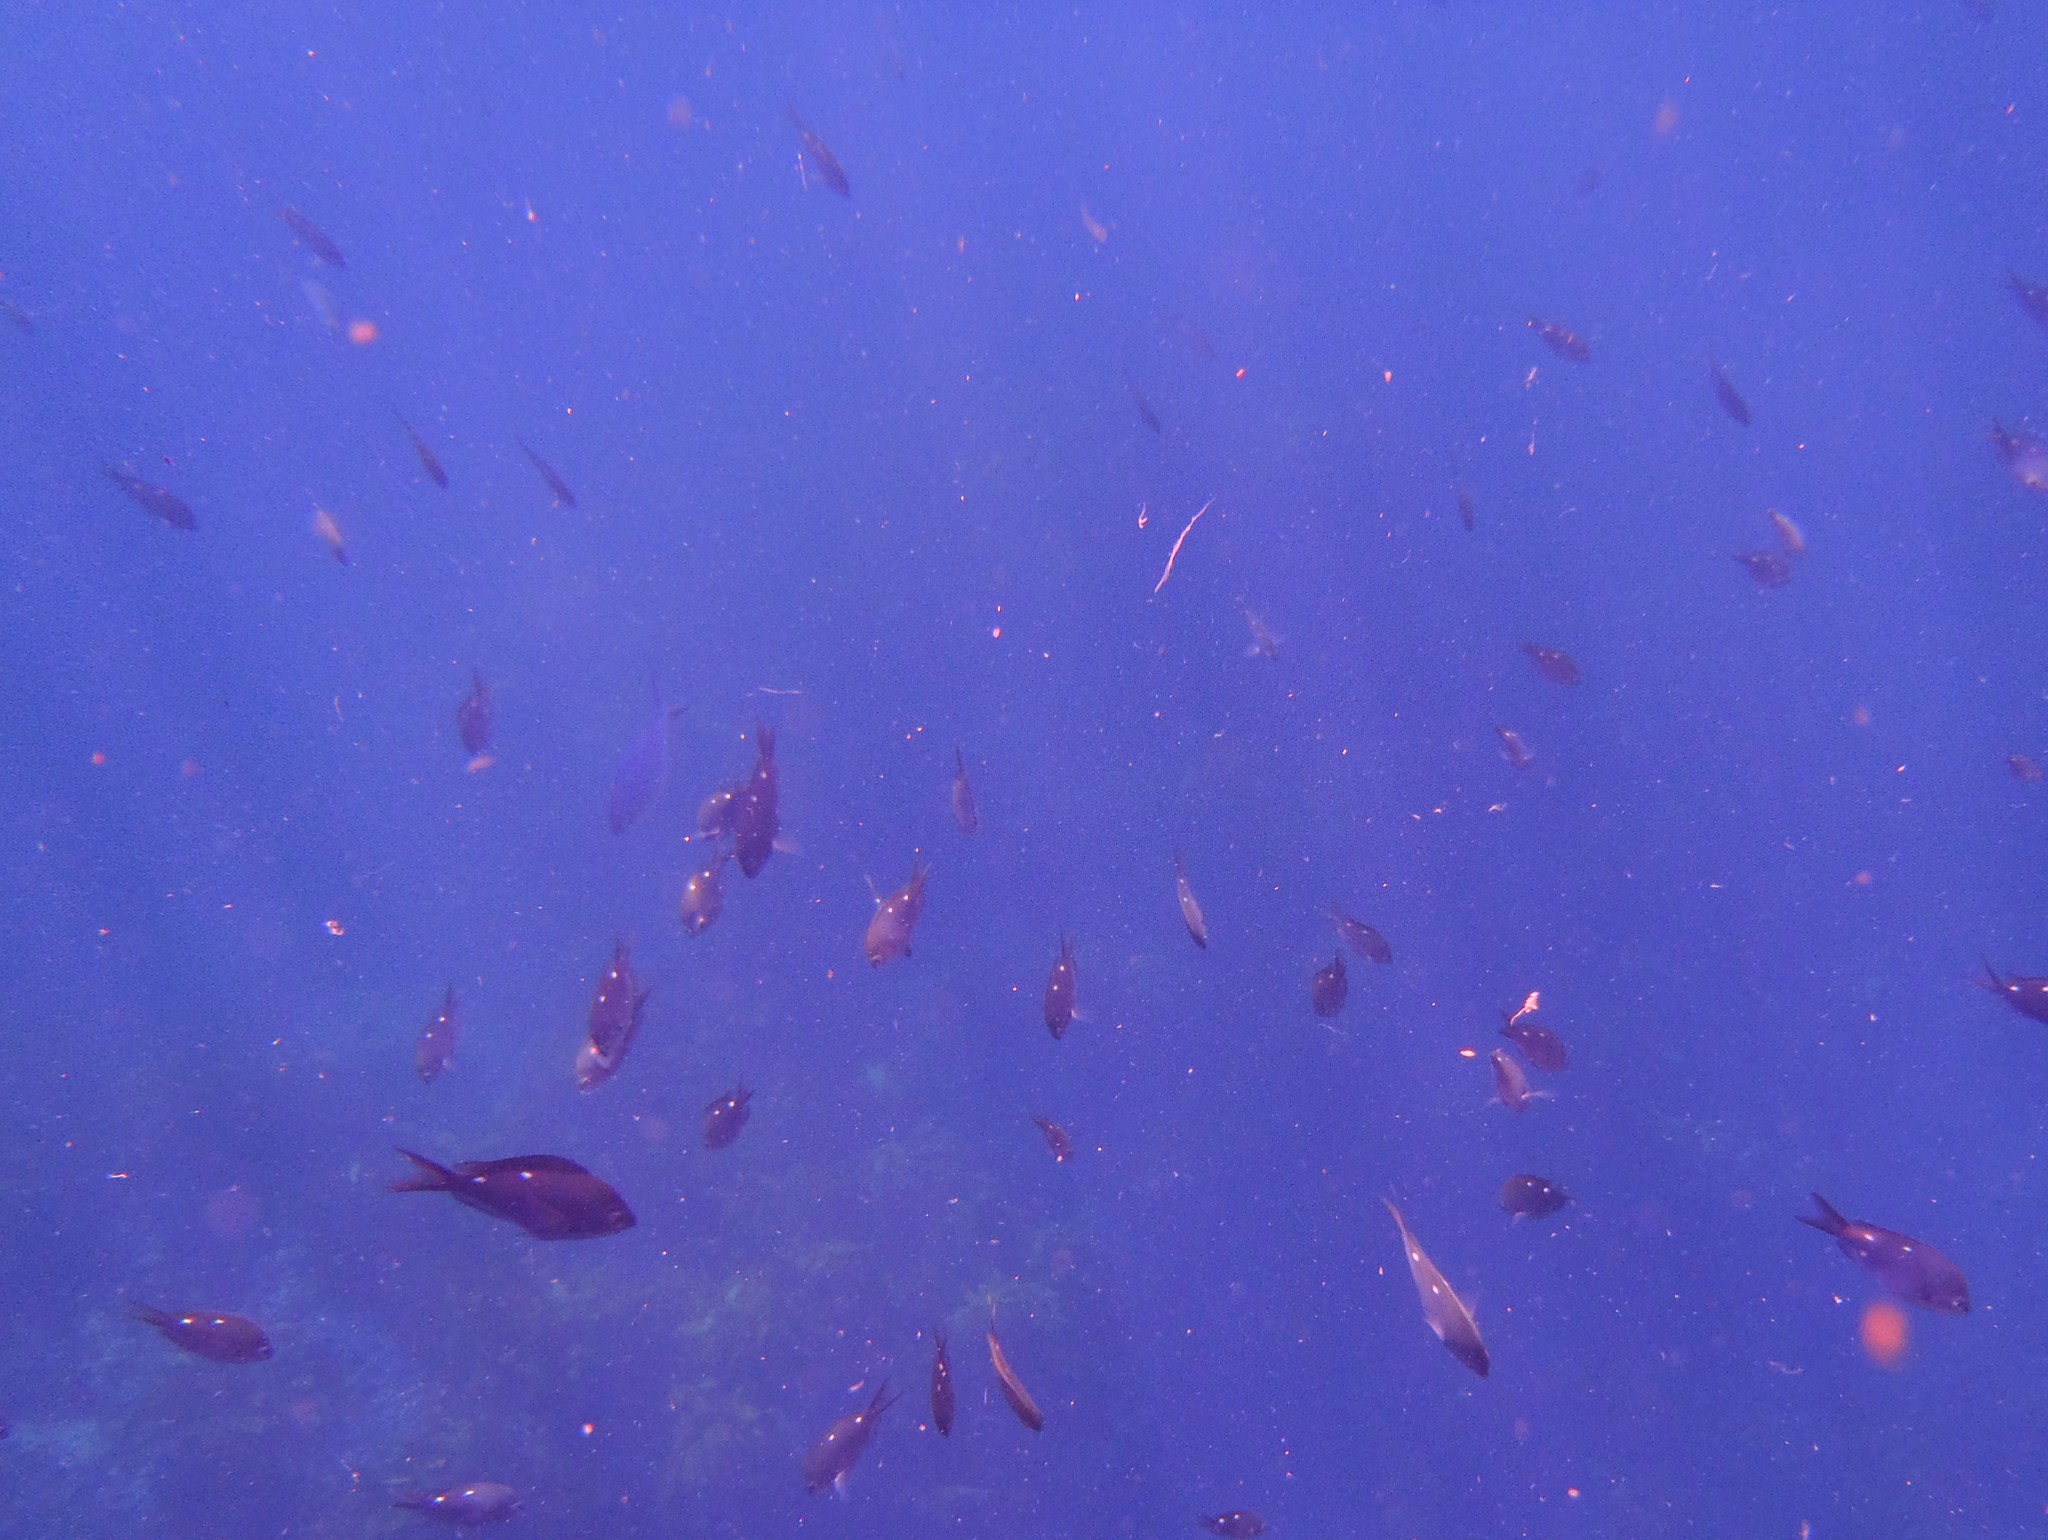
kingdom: Animalia
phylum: Chordata
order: Perciformes
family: Pomacentridae
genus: Chromis
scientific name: Chromis dispilus
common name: Demoiselle
